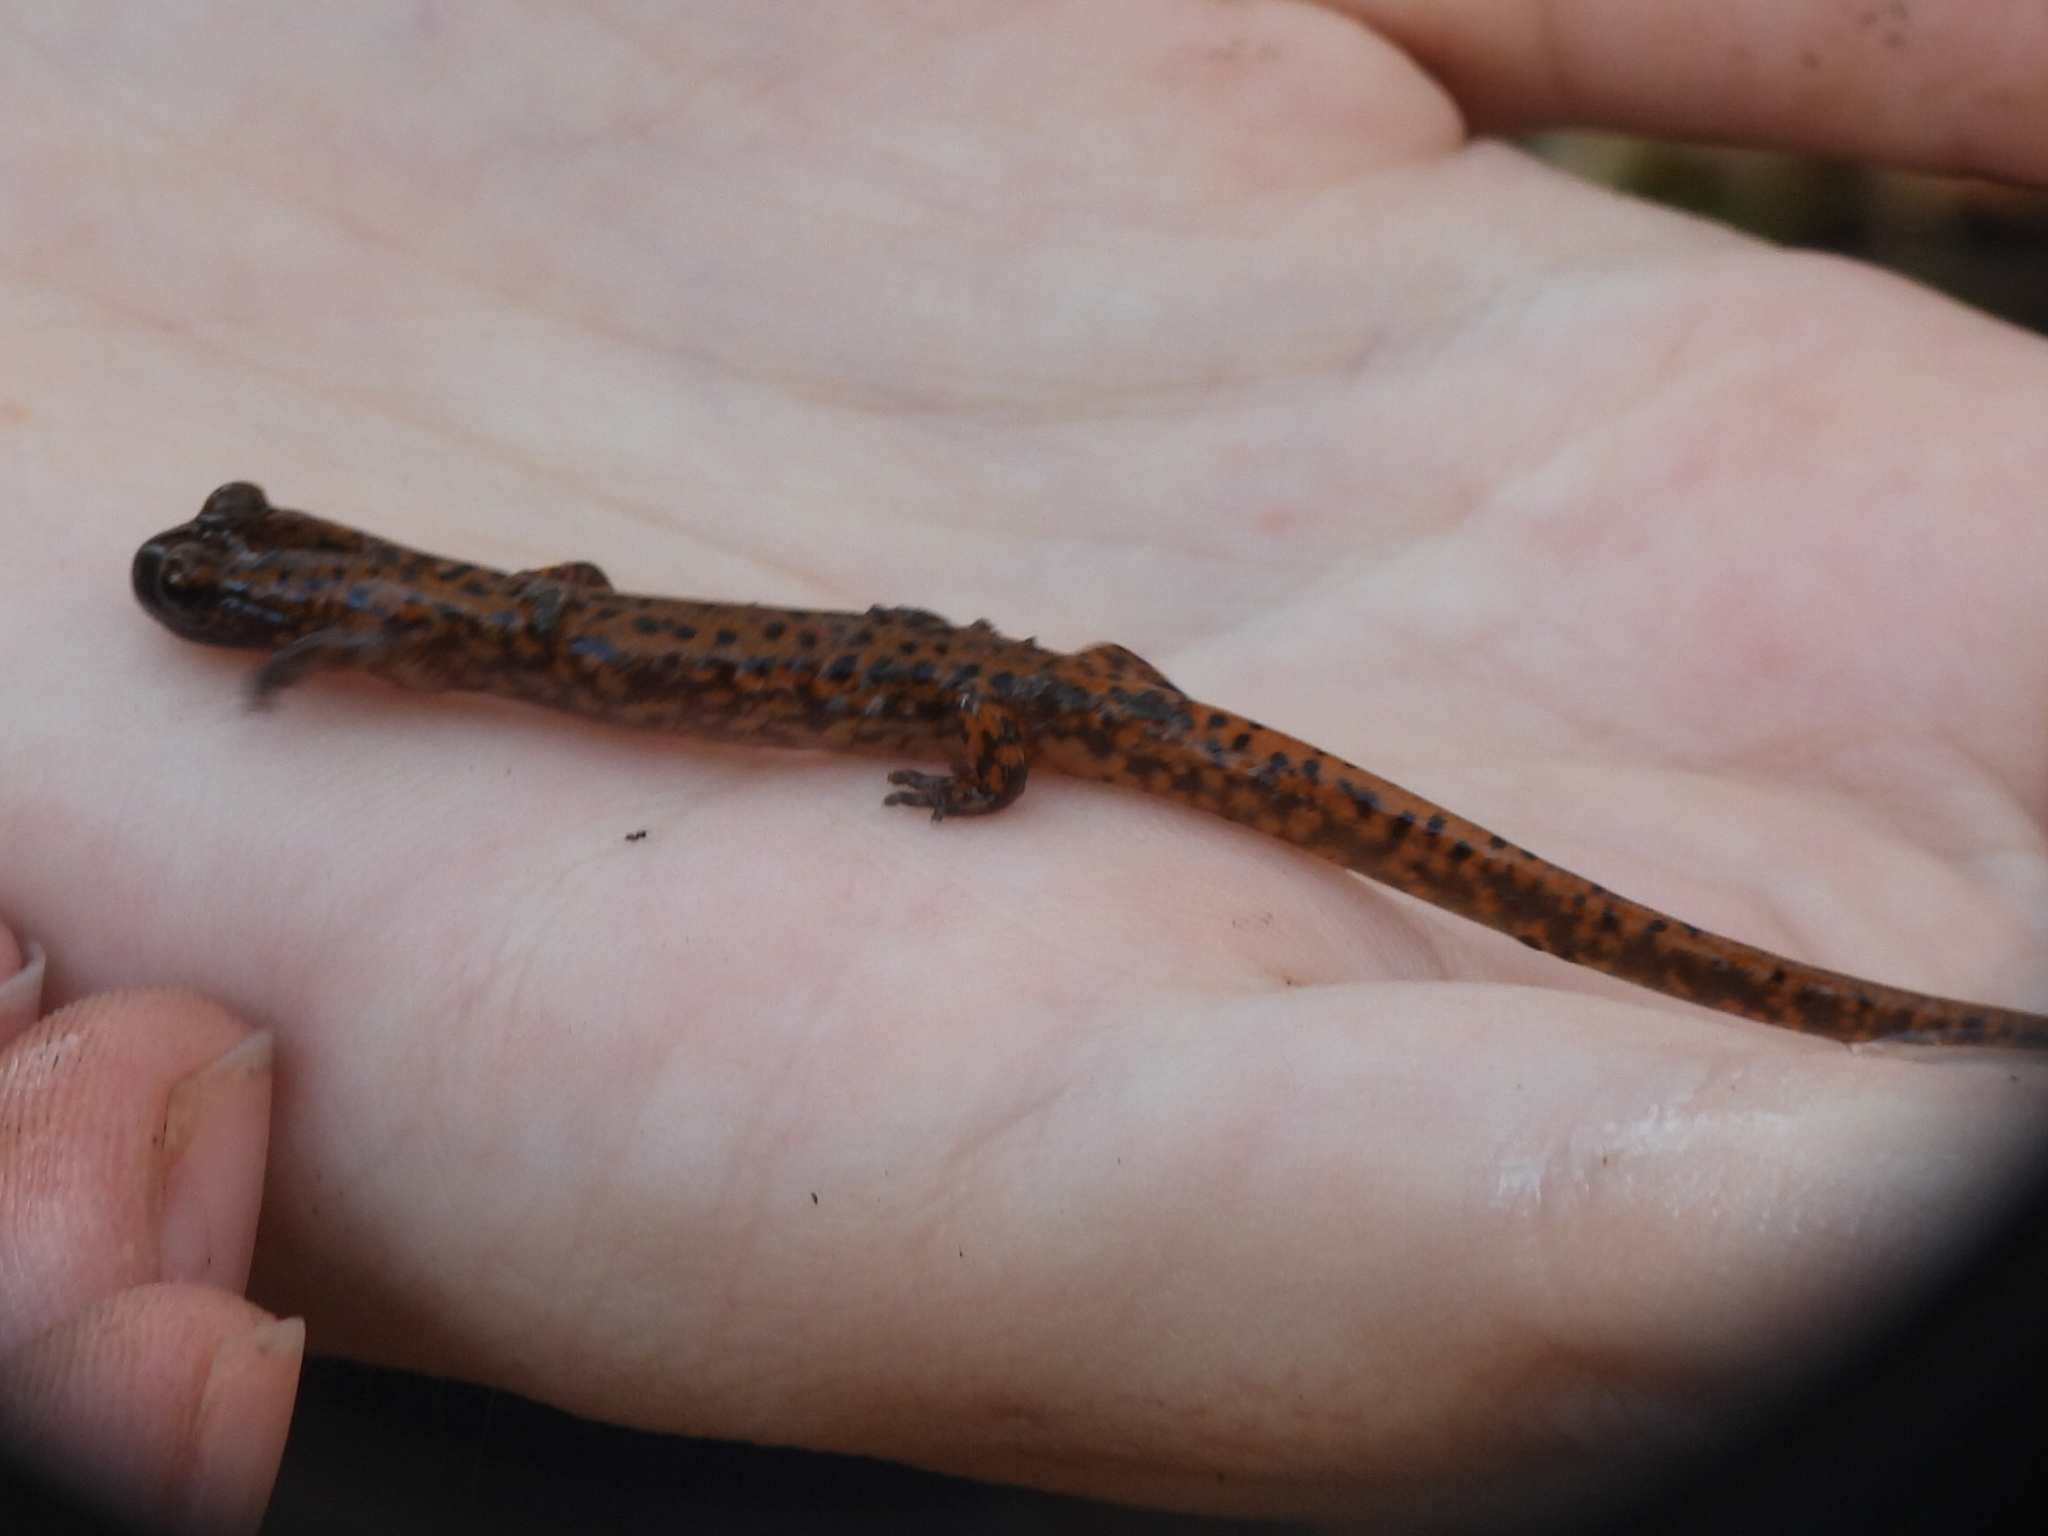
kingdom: Animalia
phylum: Chordata
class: Amphibia
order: Caudata
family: Plethodontidae
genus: Eurycea
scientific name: Eurycea lucifuga
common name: Cave salamander
